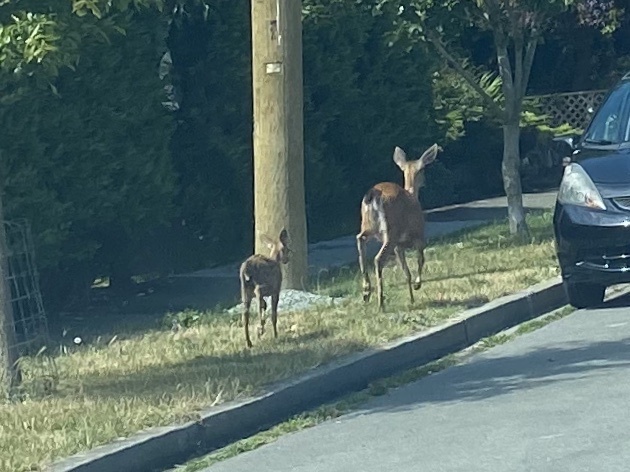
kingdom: Animalia
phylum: Chordata
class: Mammalia
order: Artiodactyla
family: Cervidae
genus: Odocoileus
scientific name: Odocoileus hemionus
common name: Mule deer
